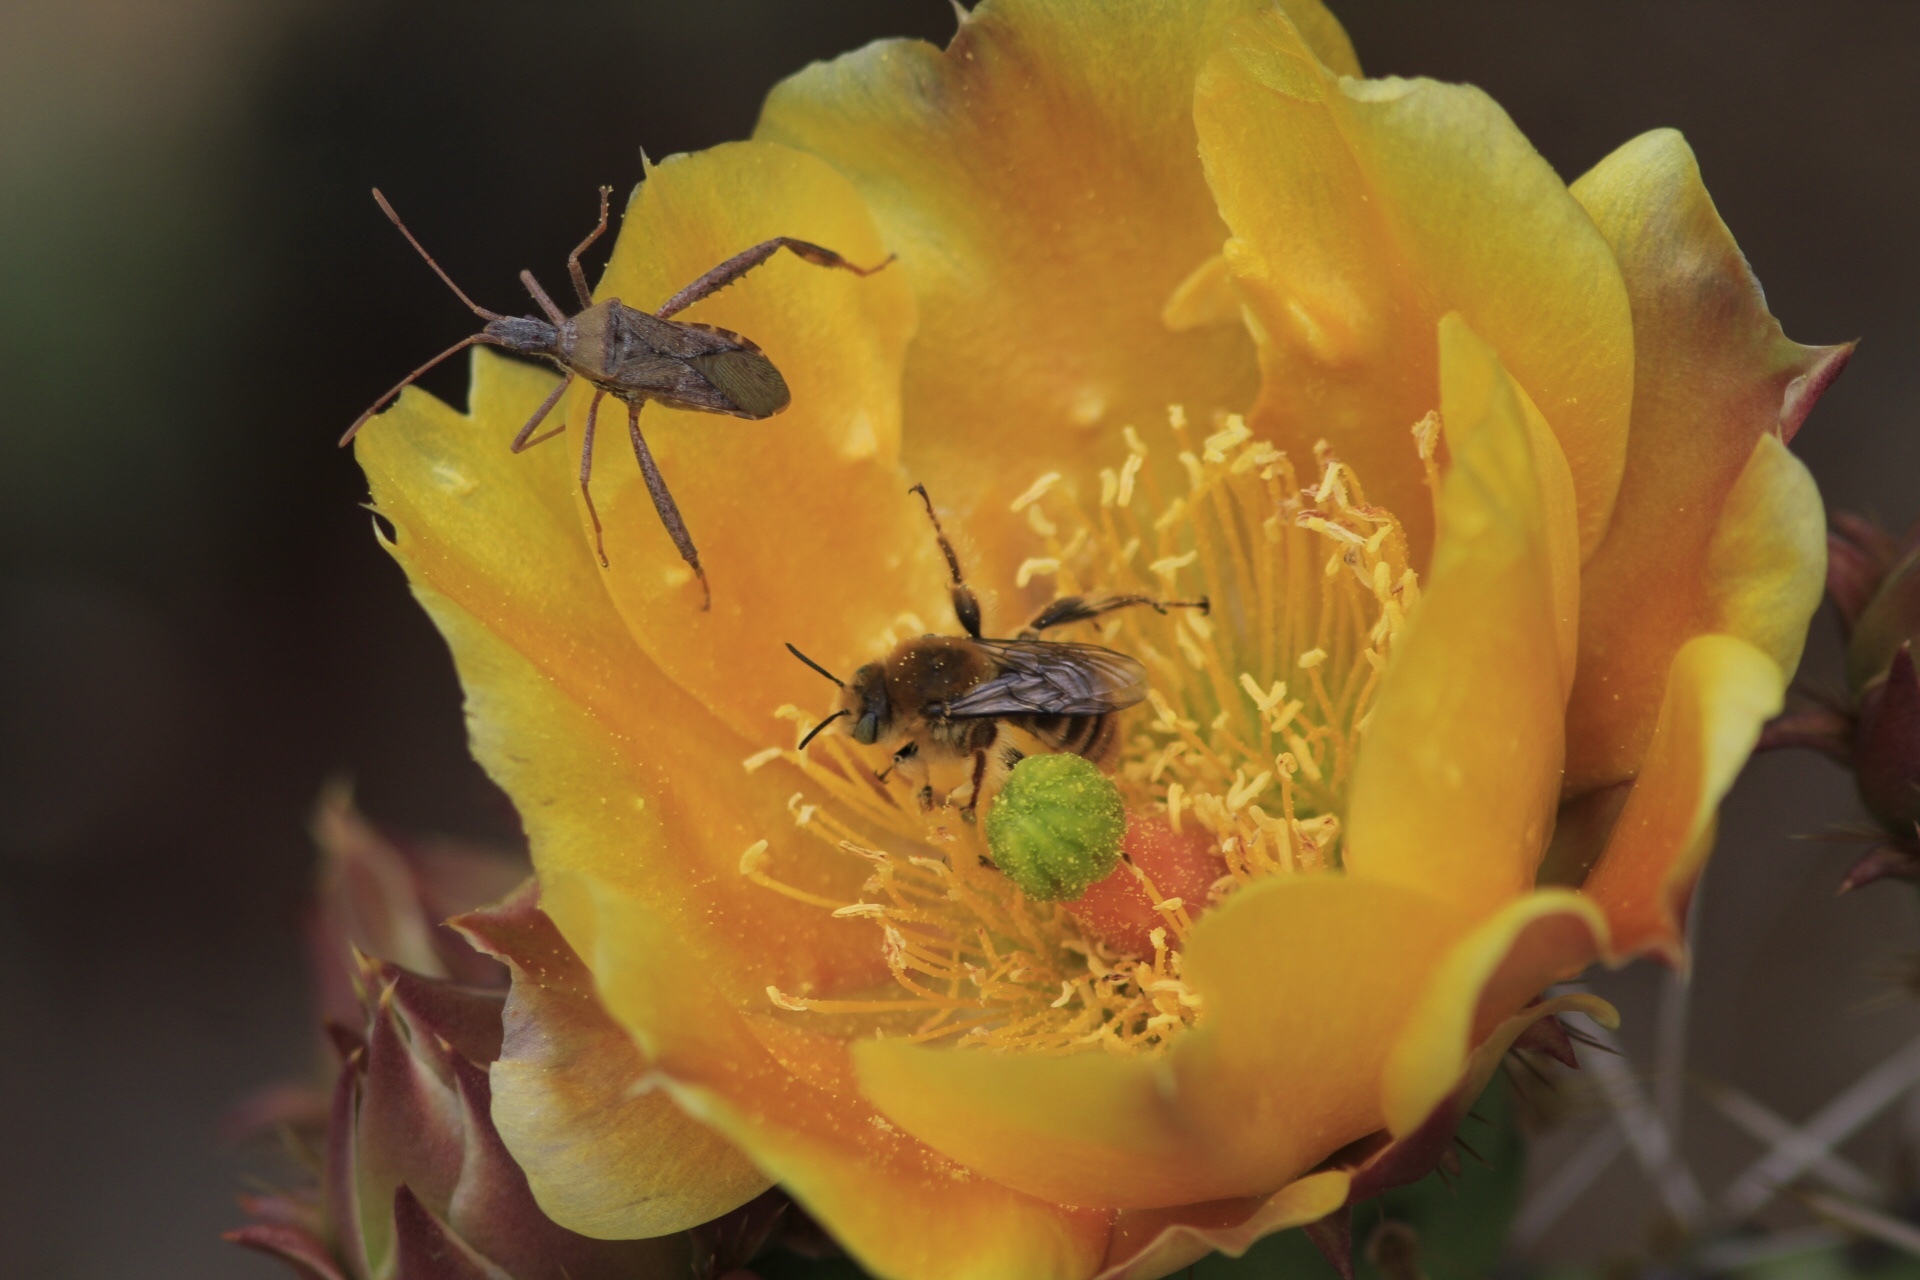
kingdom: Animalia
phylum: Arthropoda
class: Insecta
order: Hemiptera
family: Coreidae
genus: Narnia
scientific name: Narnia femorata
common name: Leaf-footed cactus bug
